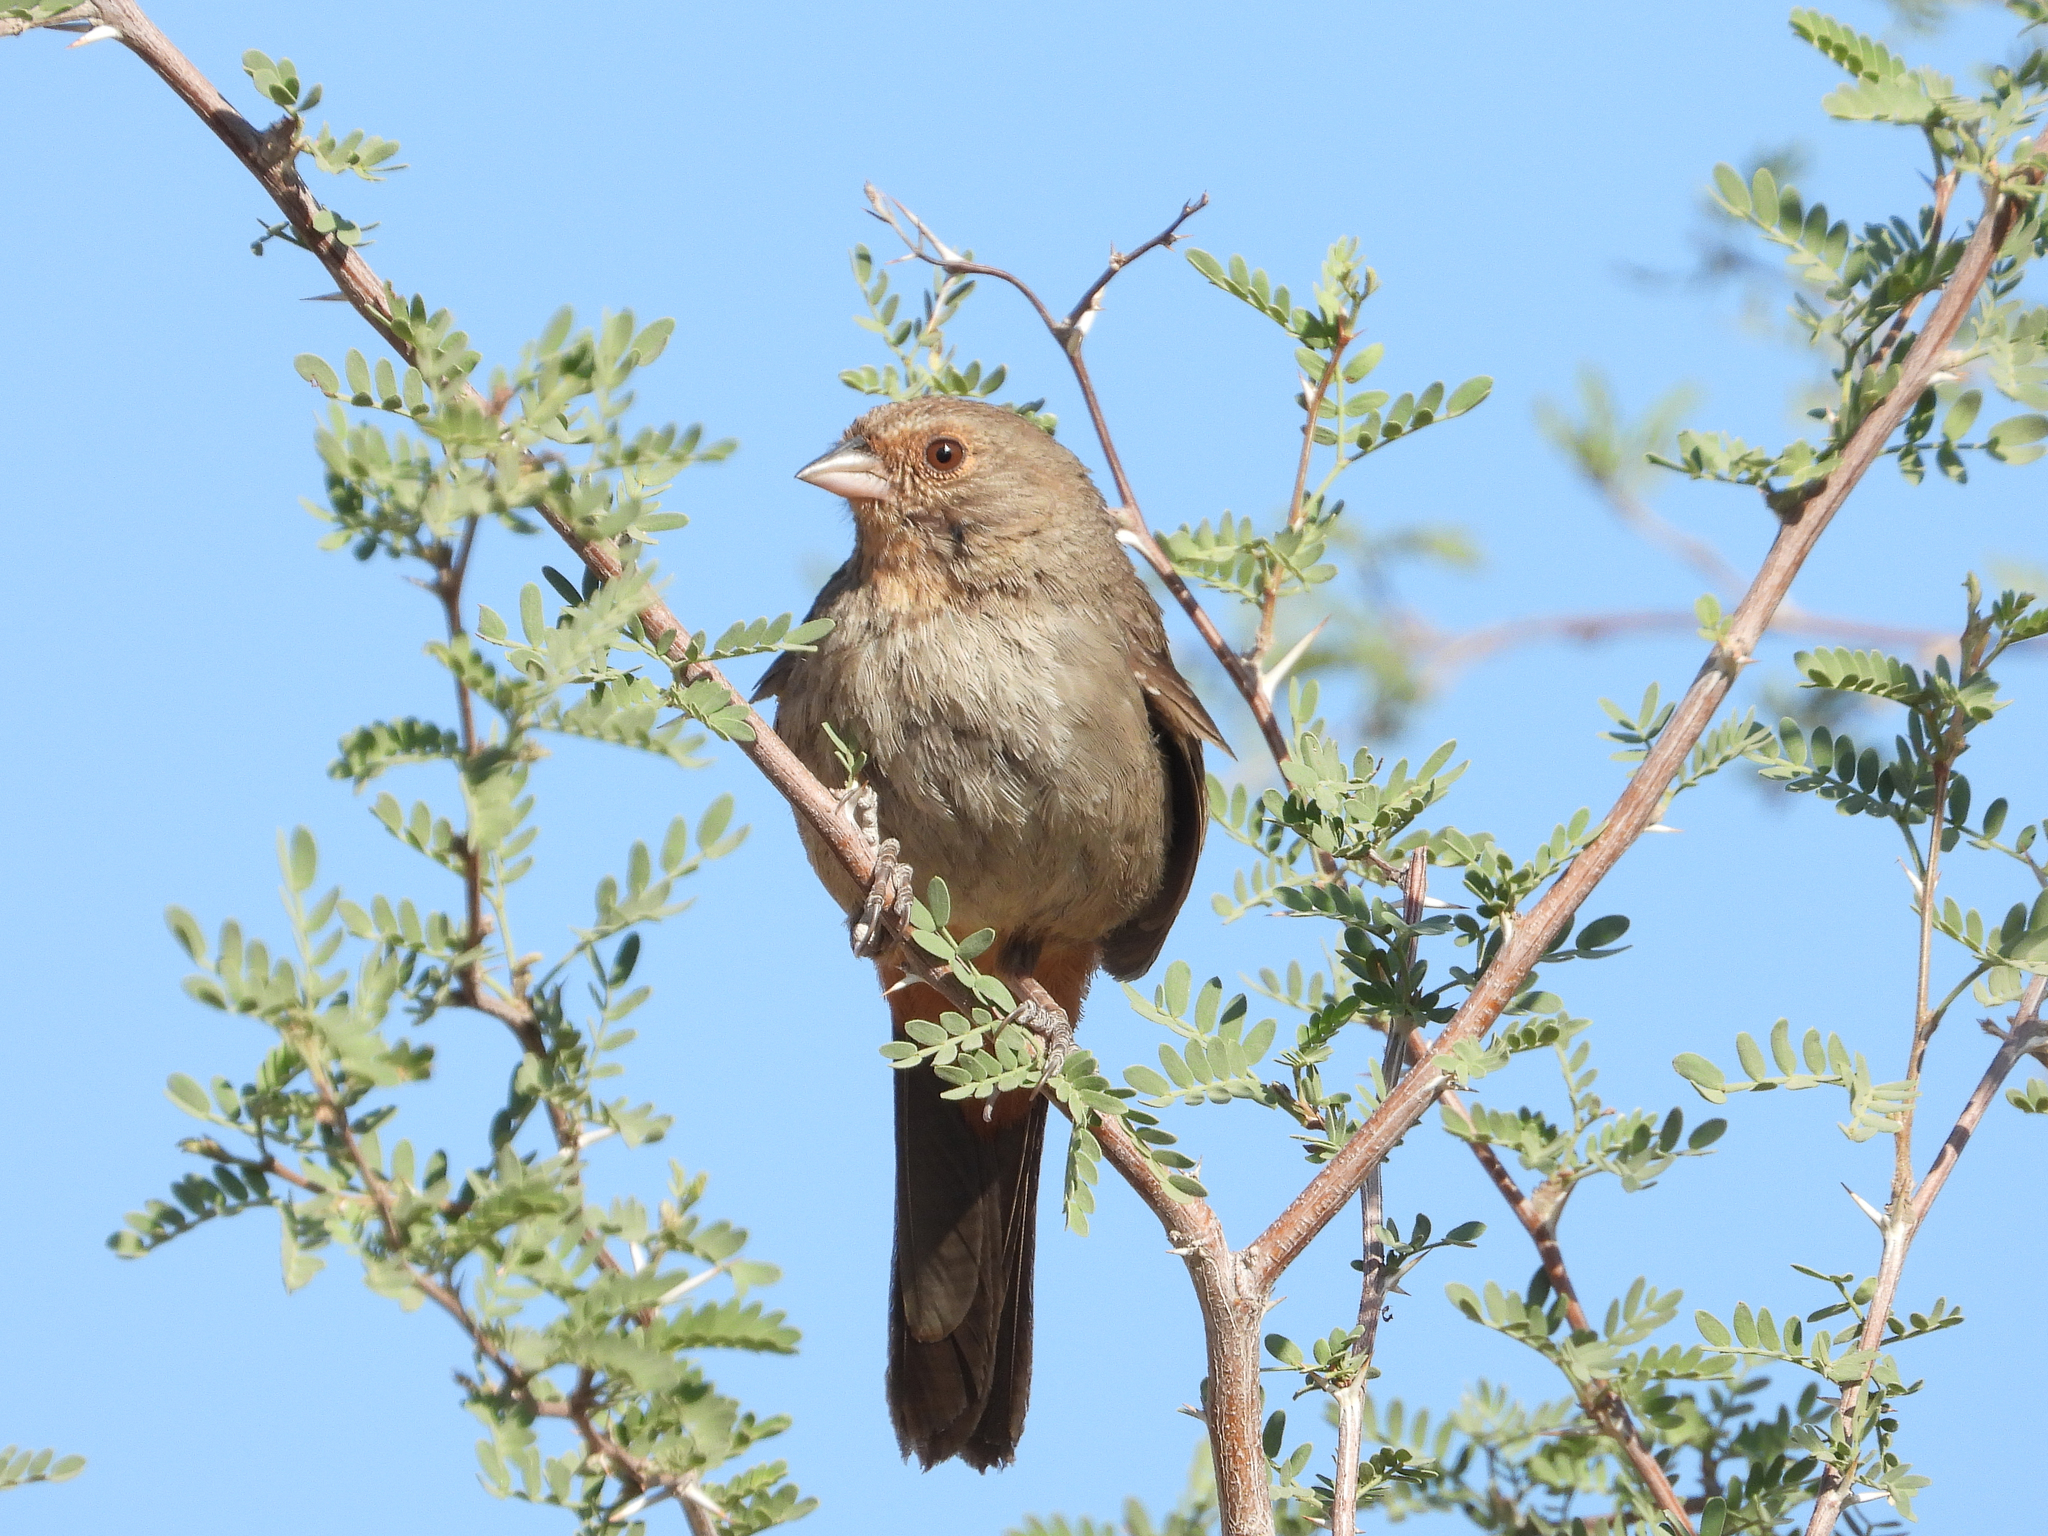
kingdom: Animalia
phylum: Chordata
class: Aves
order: Passeriformes
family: Passerellidae
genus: Melozone
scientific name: Melozone crissalis
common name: California towhee
